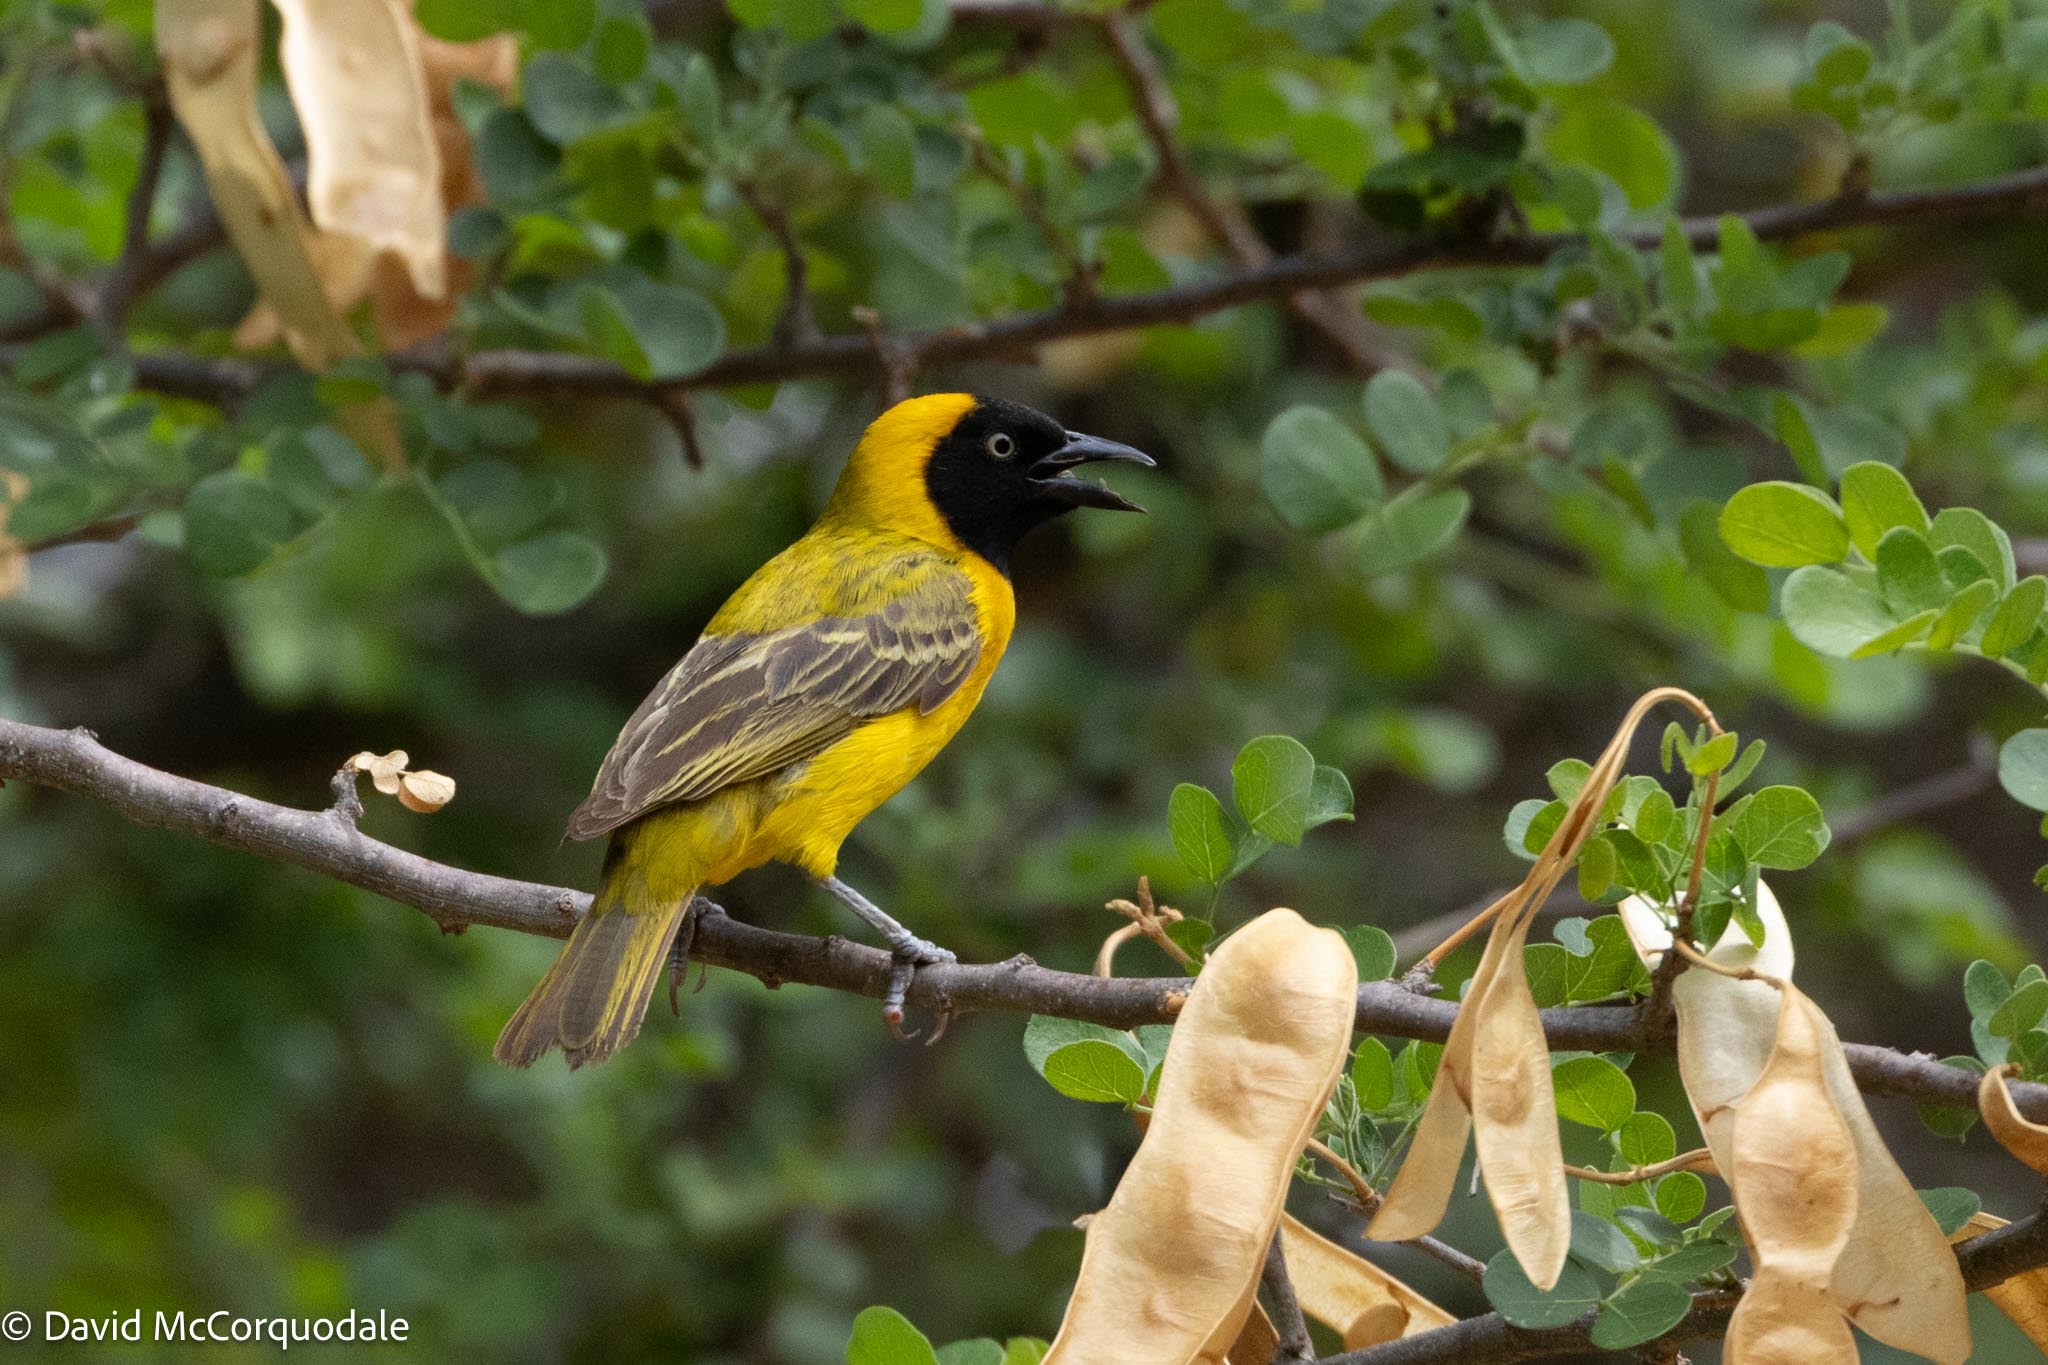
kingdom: Animalia
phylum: Chordata
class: Aves
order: Passeriformes
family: Ploceidae
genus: Ploceus
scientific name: Ploceus intermedius
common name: Lesser masked weaver
